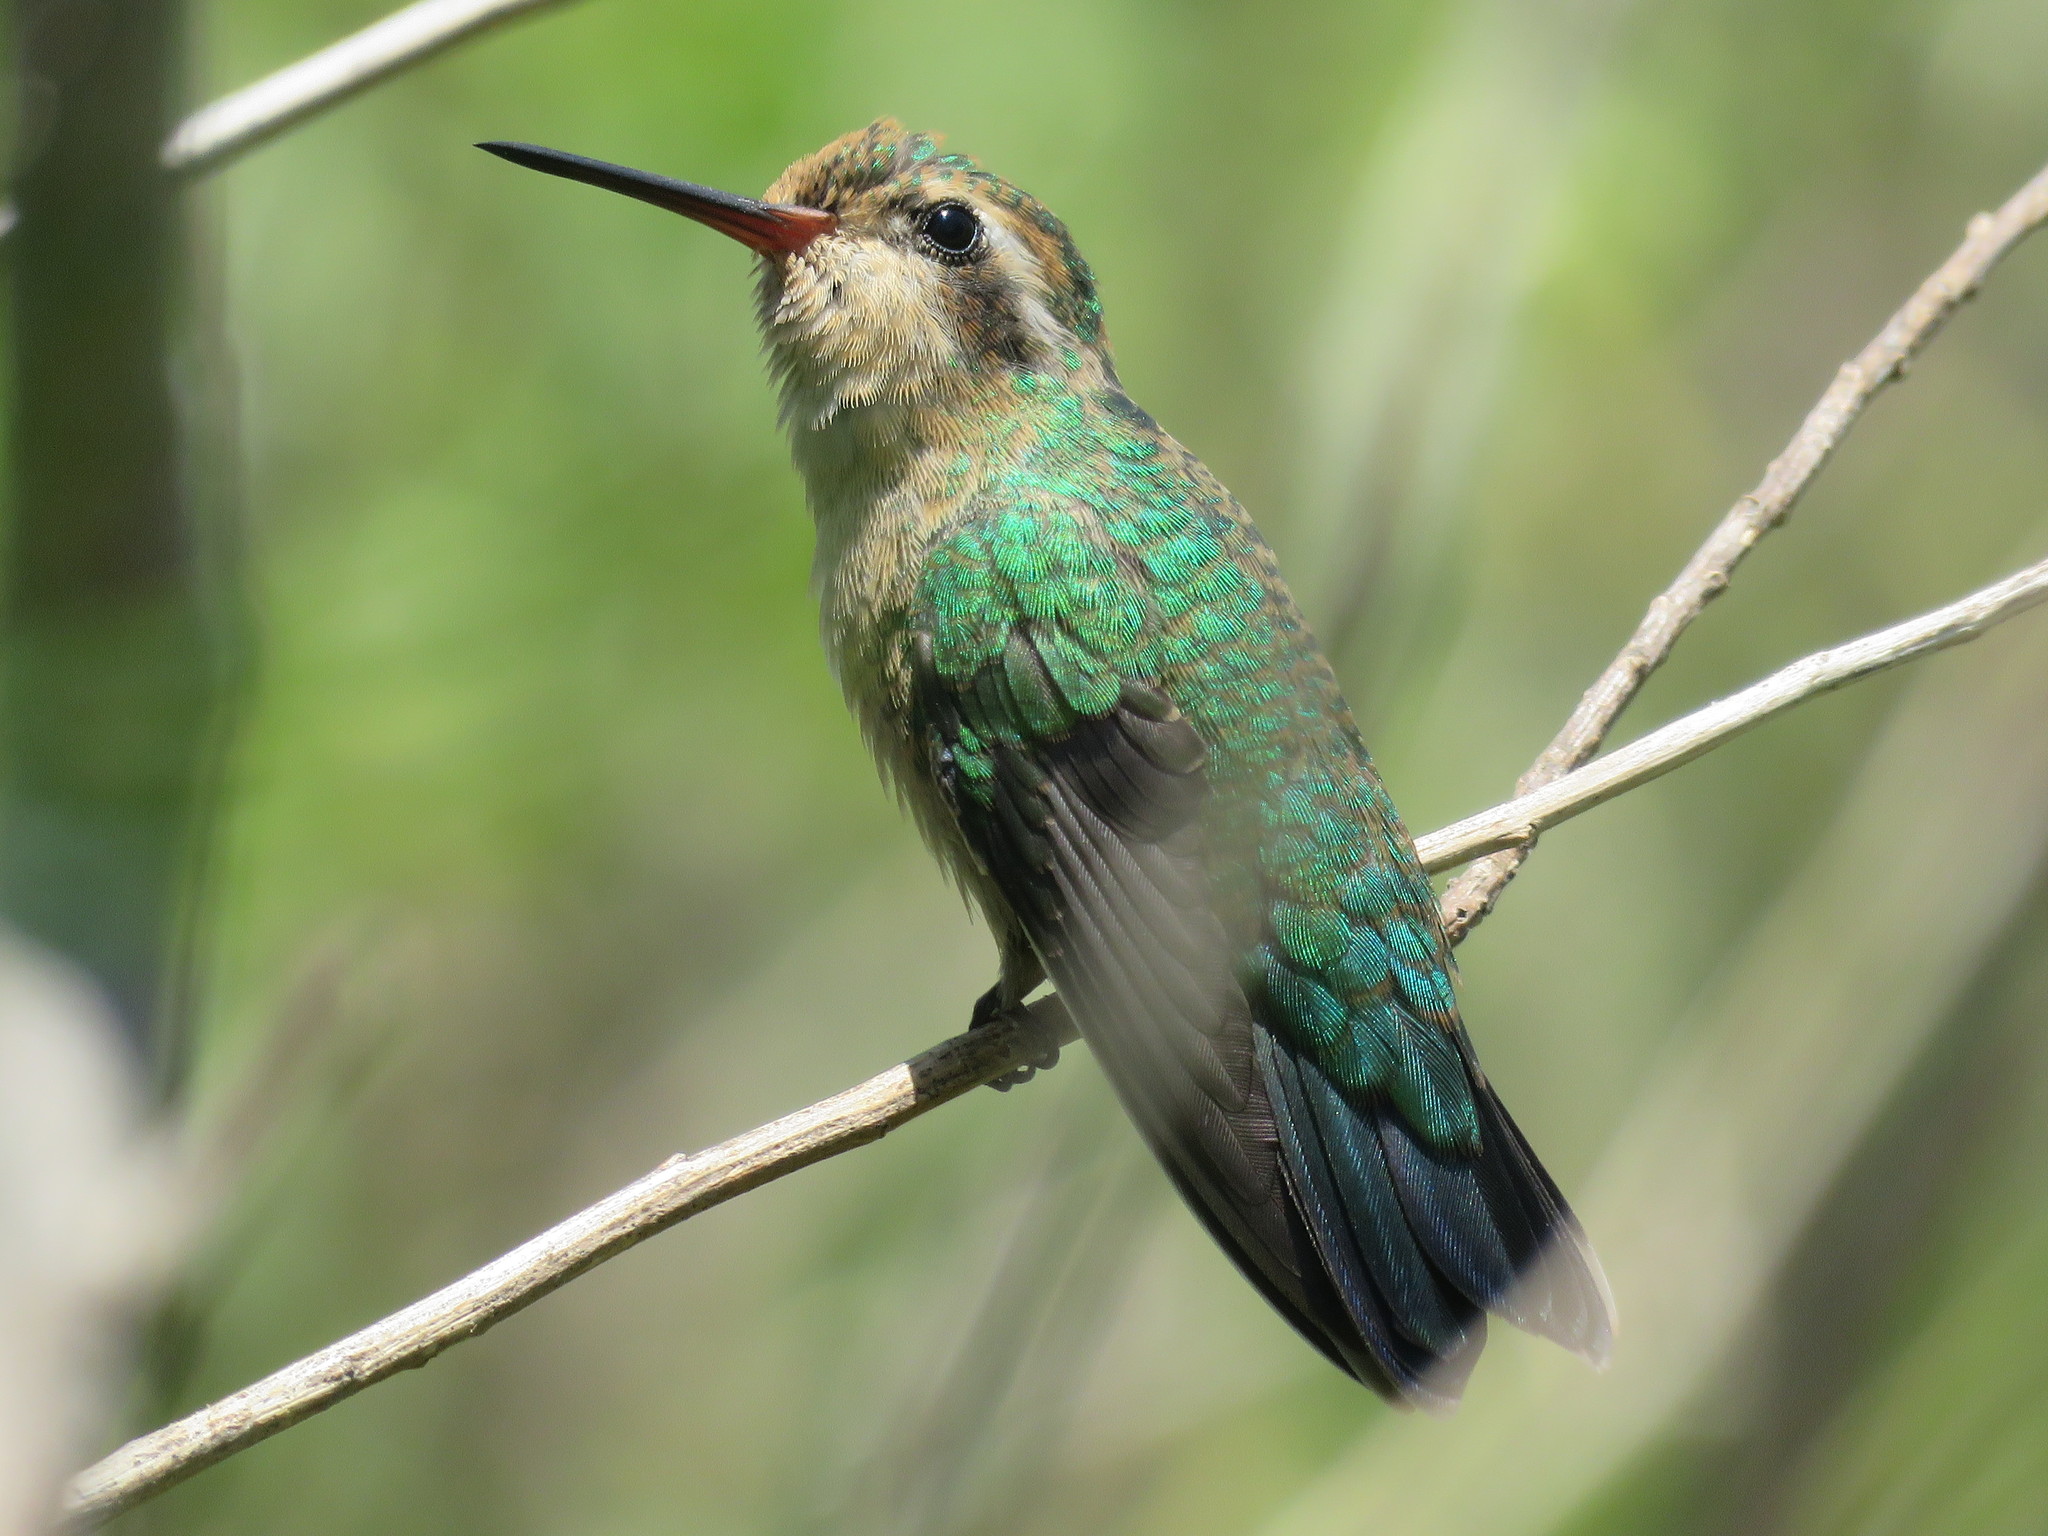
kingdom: Animalia
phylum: Chordata
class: Aves
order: Apodiformes
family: Trochilidae
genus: Chlorostilbon
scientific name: Chlorostilbon lucidus
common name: Glittering-bellied emerald
